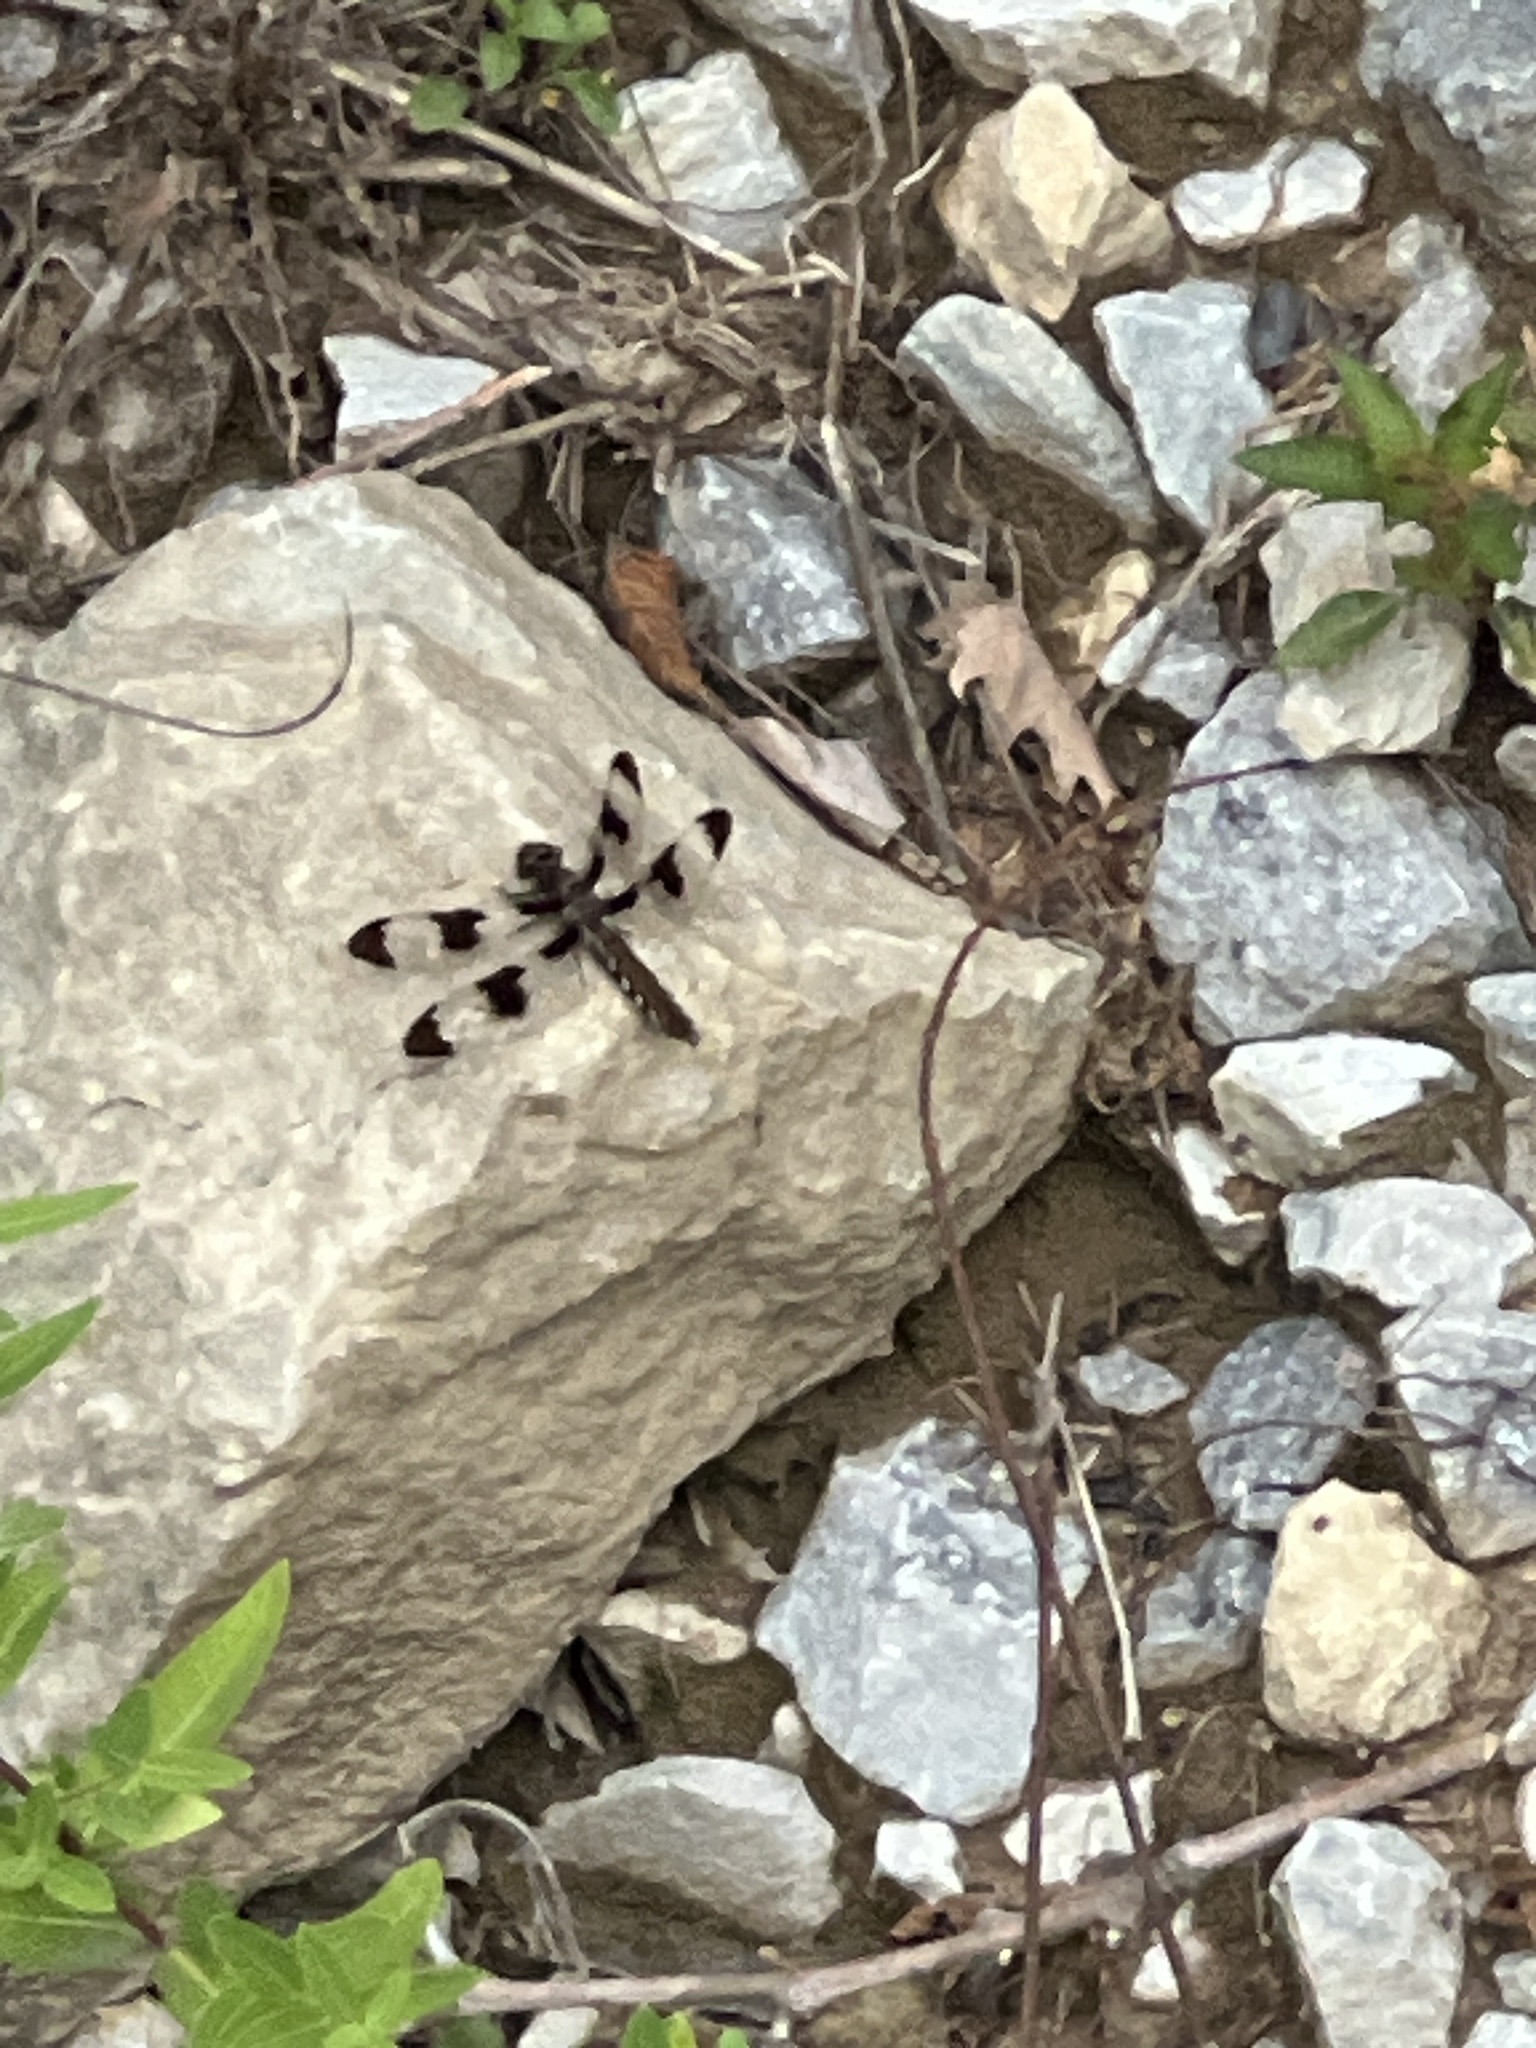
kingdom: Animalia
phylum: Arthropoda
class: Insecta
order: Odonata
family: Libellulidae
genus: Plathemis
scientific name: Plathemis lydia
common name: Common whitetail
